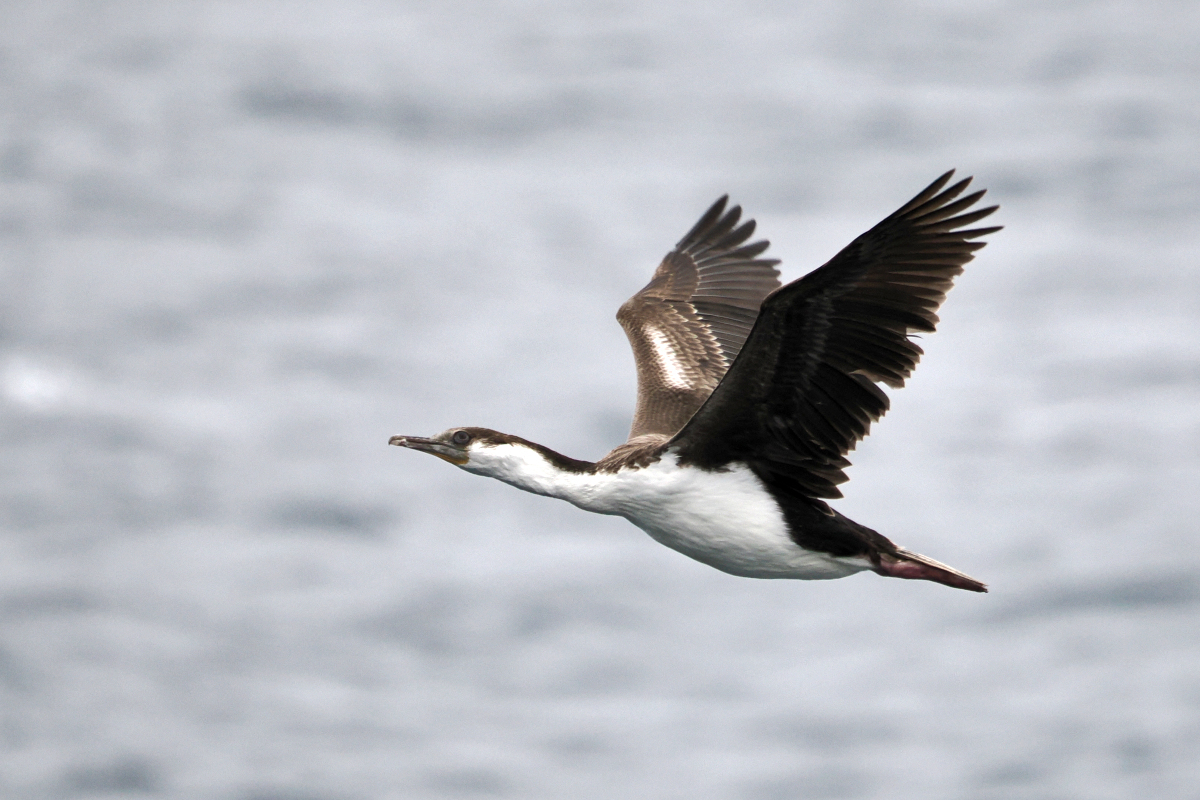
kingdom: Animalia
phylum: Chordata
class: Aves
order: Suliformes
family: Phalacrocoracidae
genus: Leucocarbo
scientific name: Leucocarbo atriceps
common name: Imperial shag
